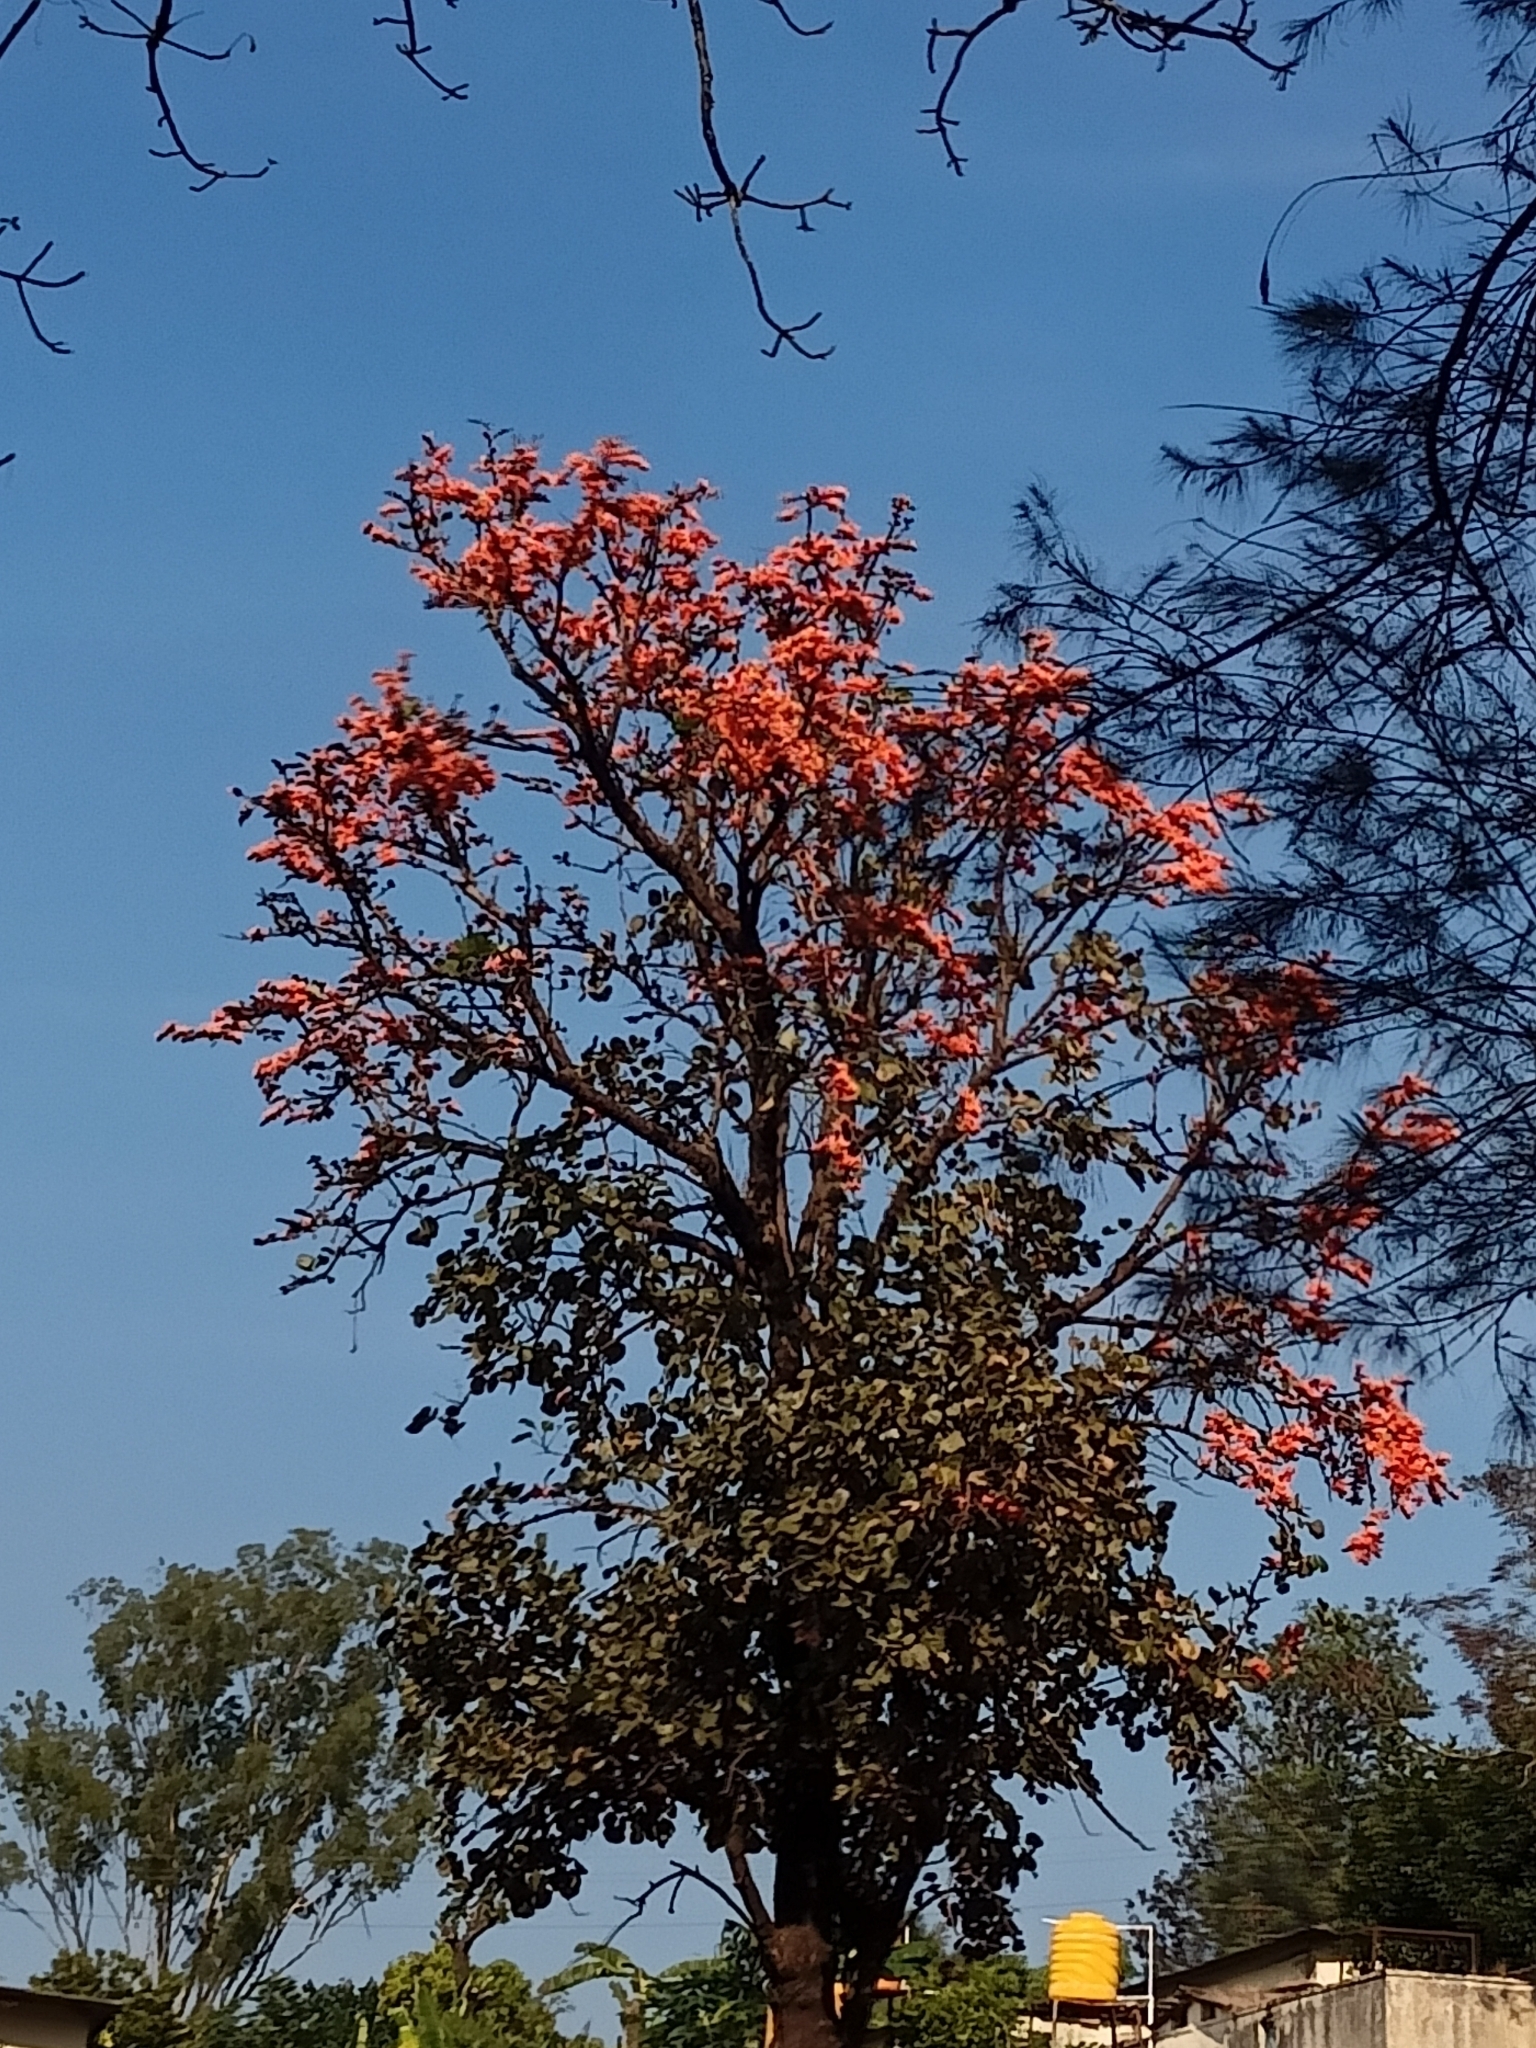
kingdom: Plantae
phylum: Tracheophyta
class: Magnoliopsida
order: Fabales
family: Fabaceae
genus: Butea
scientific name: Butea monosperma
